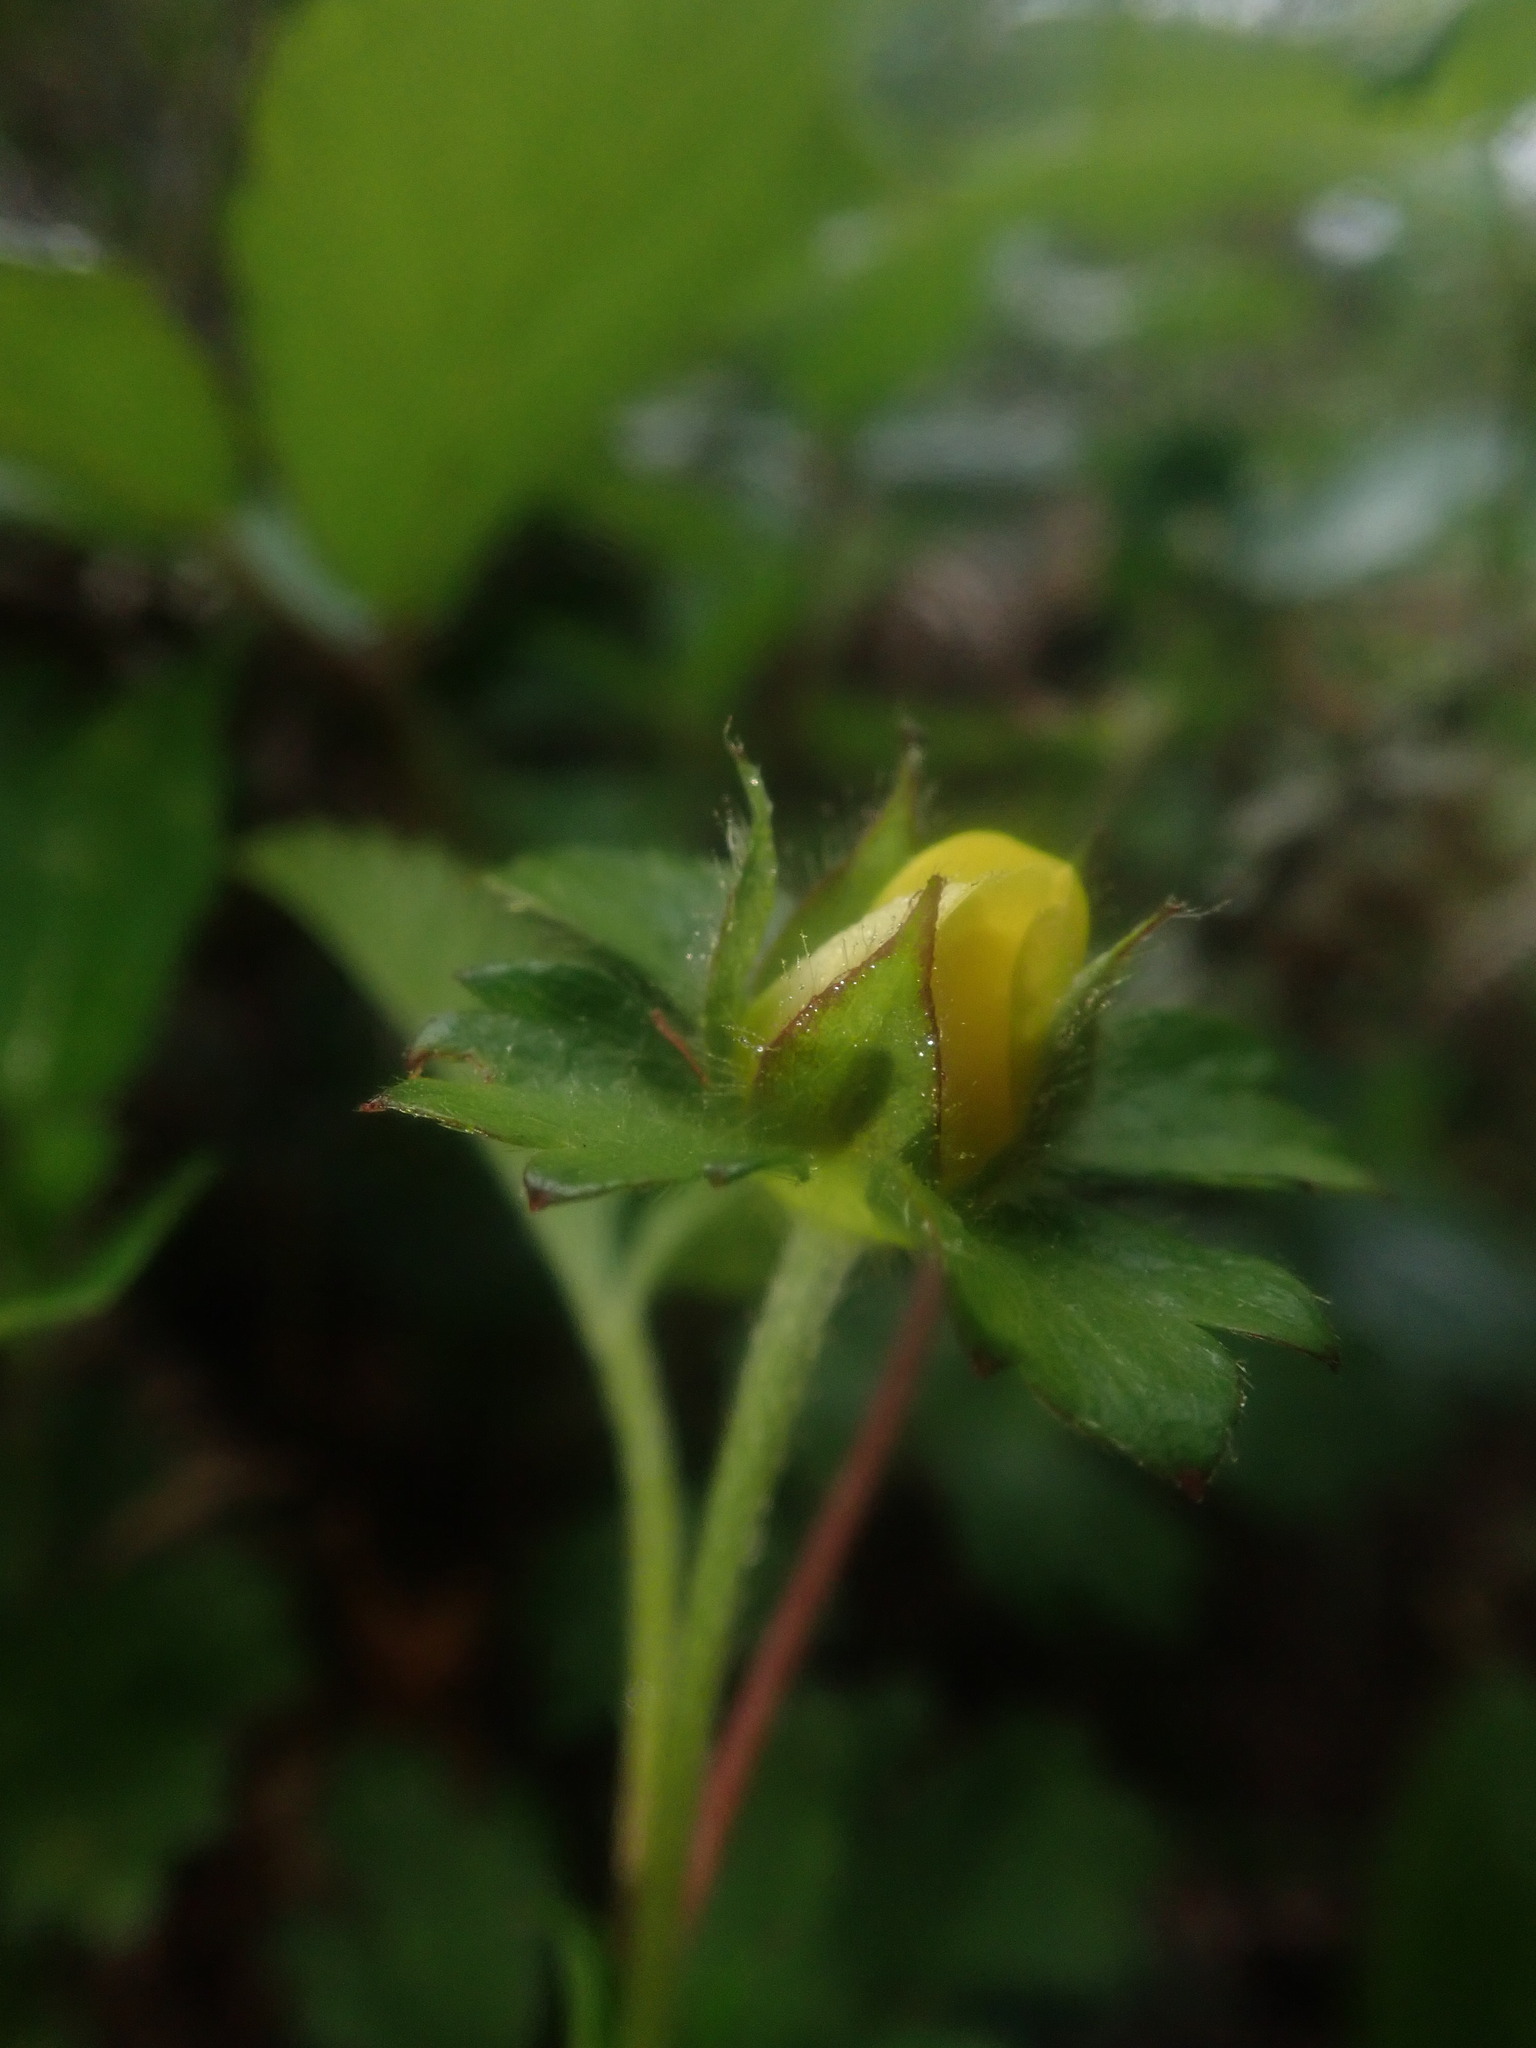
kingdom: Plantae
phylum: Tracheophyta
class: Magnoliopsida
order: Rosales
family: Rosaceae
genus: Potentilla
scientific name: Potentilla indica
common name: Yellow-flowered strawberry
